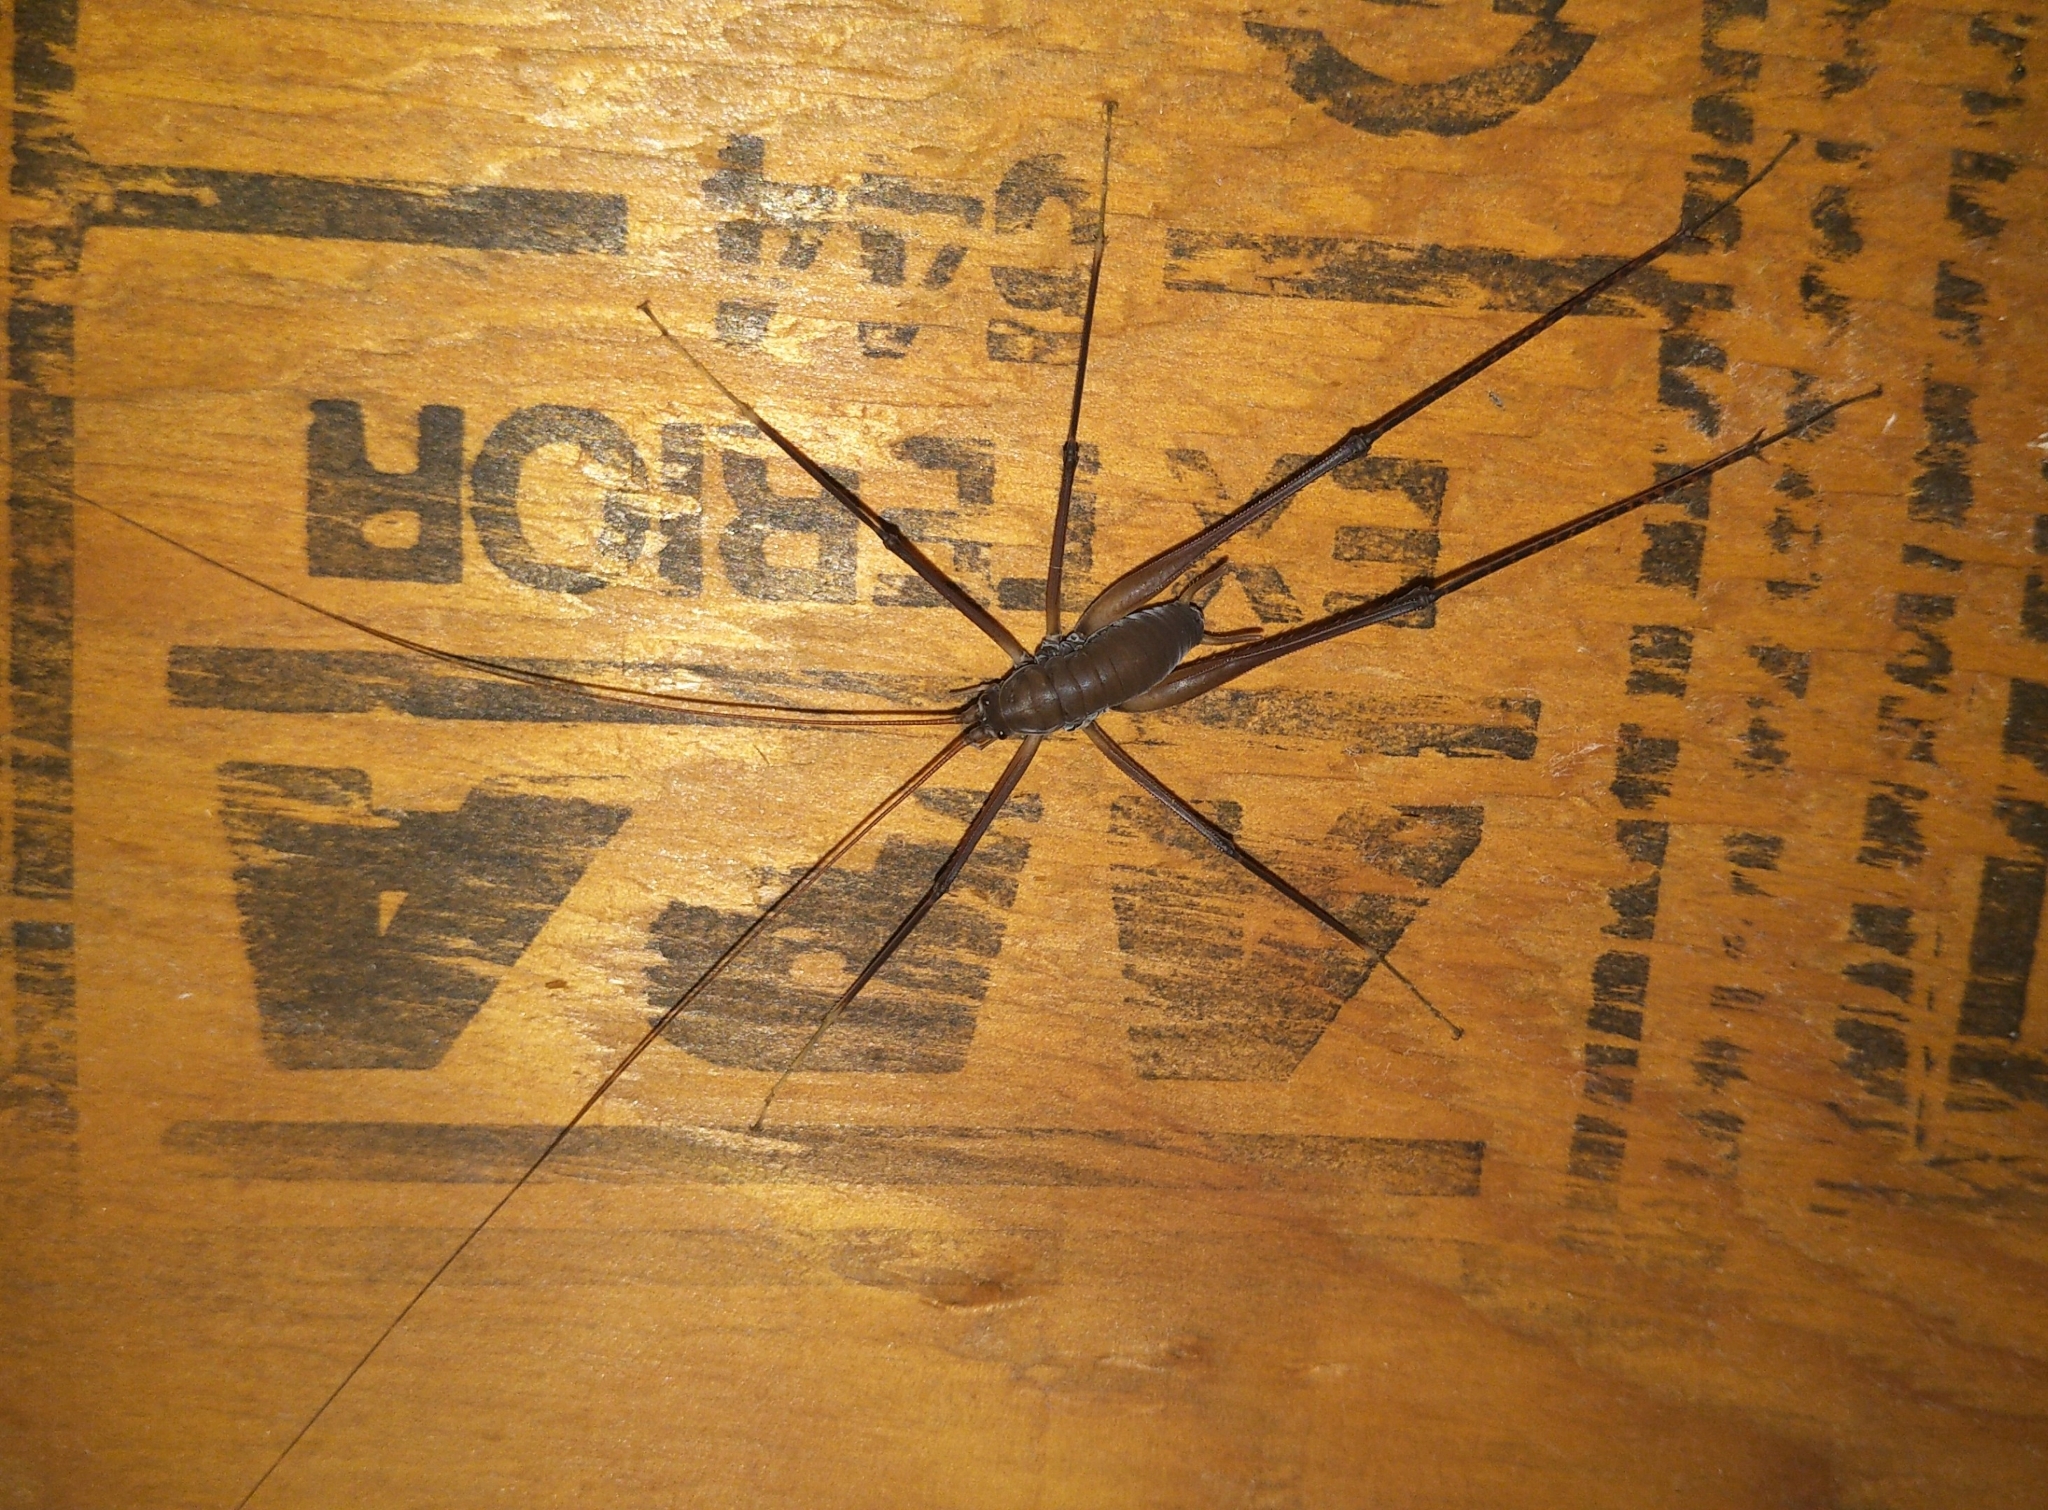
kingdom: Animalia
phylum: Arthropoda
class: Insecta
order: Orthoptera
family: Rhaphidophoridae
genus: Tropidischia
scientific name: Tropidischia xanthostoma
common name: Square-legged camel cricket
